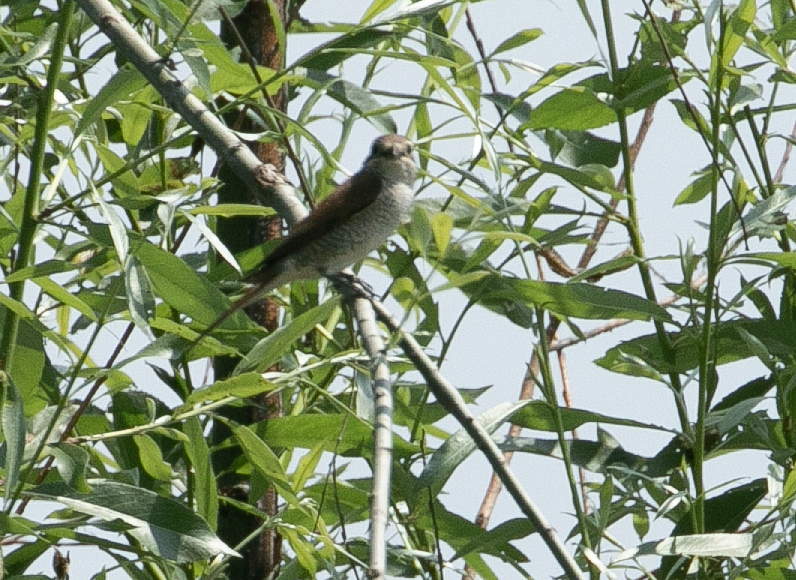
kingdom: Animalia
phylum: Chordata
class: Aves
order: Passeriformes
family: Laniidae
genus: Lanius
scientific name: Lanius collurio
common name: Red-backed shrike
